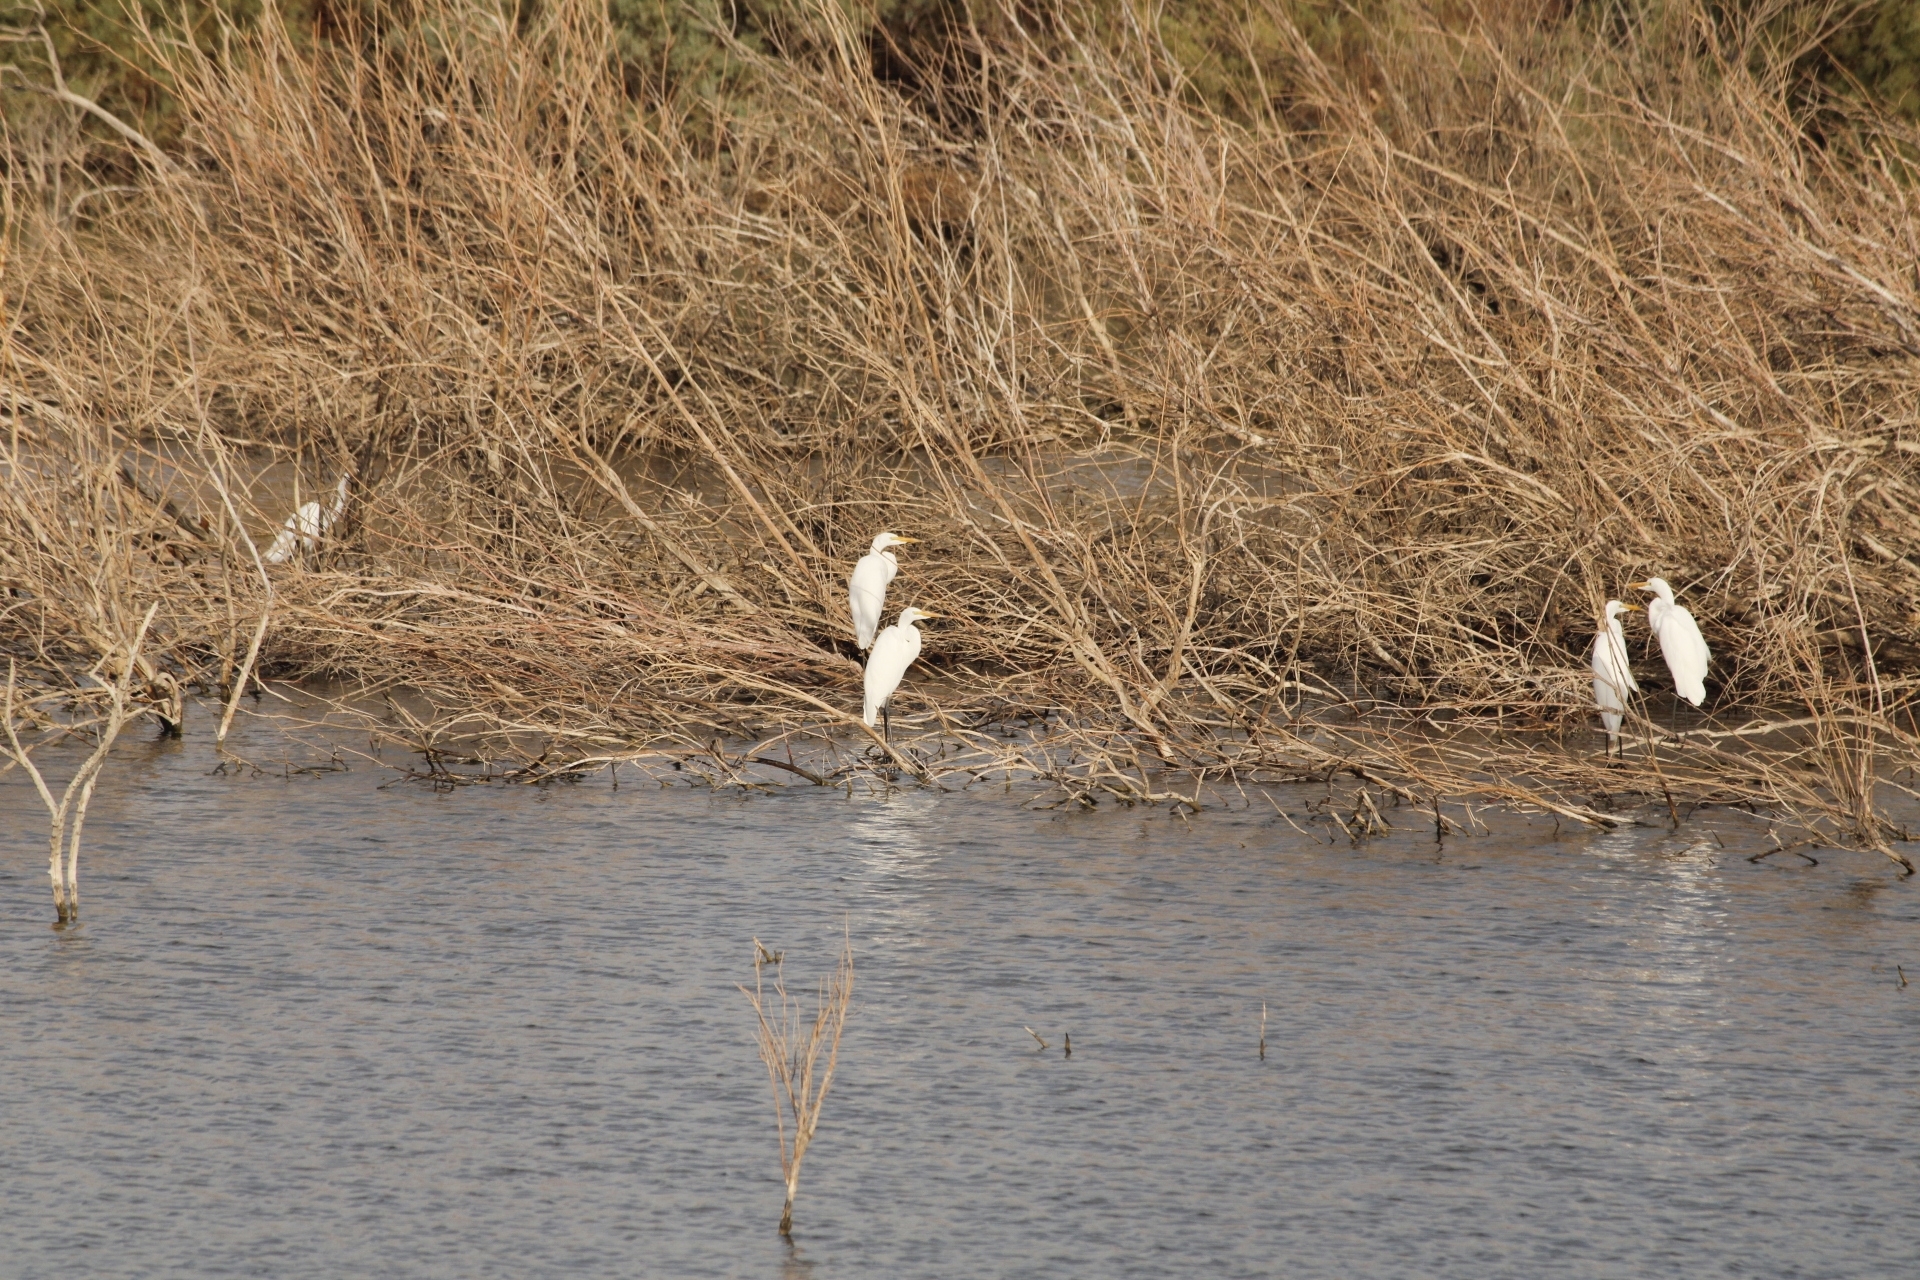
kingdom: Animalia
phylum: Chordata
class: Aves
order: Pelecaniformes
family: Ardeidae
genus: Ardea
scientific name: Ardea alba
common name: Great egret
